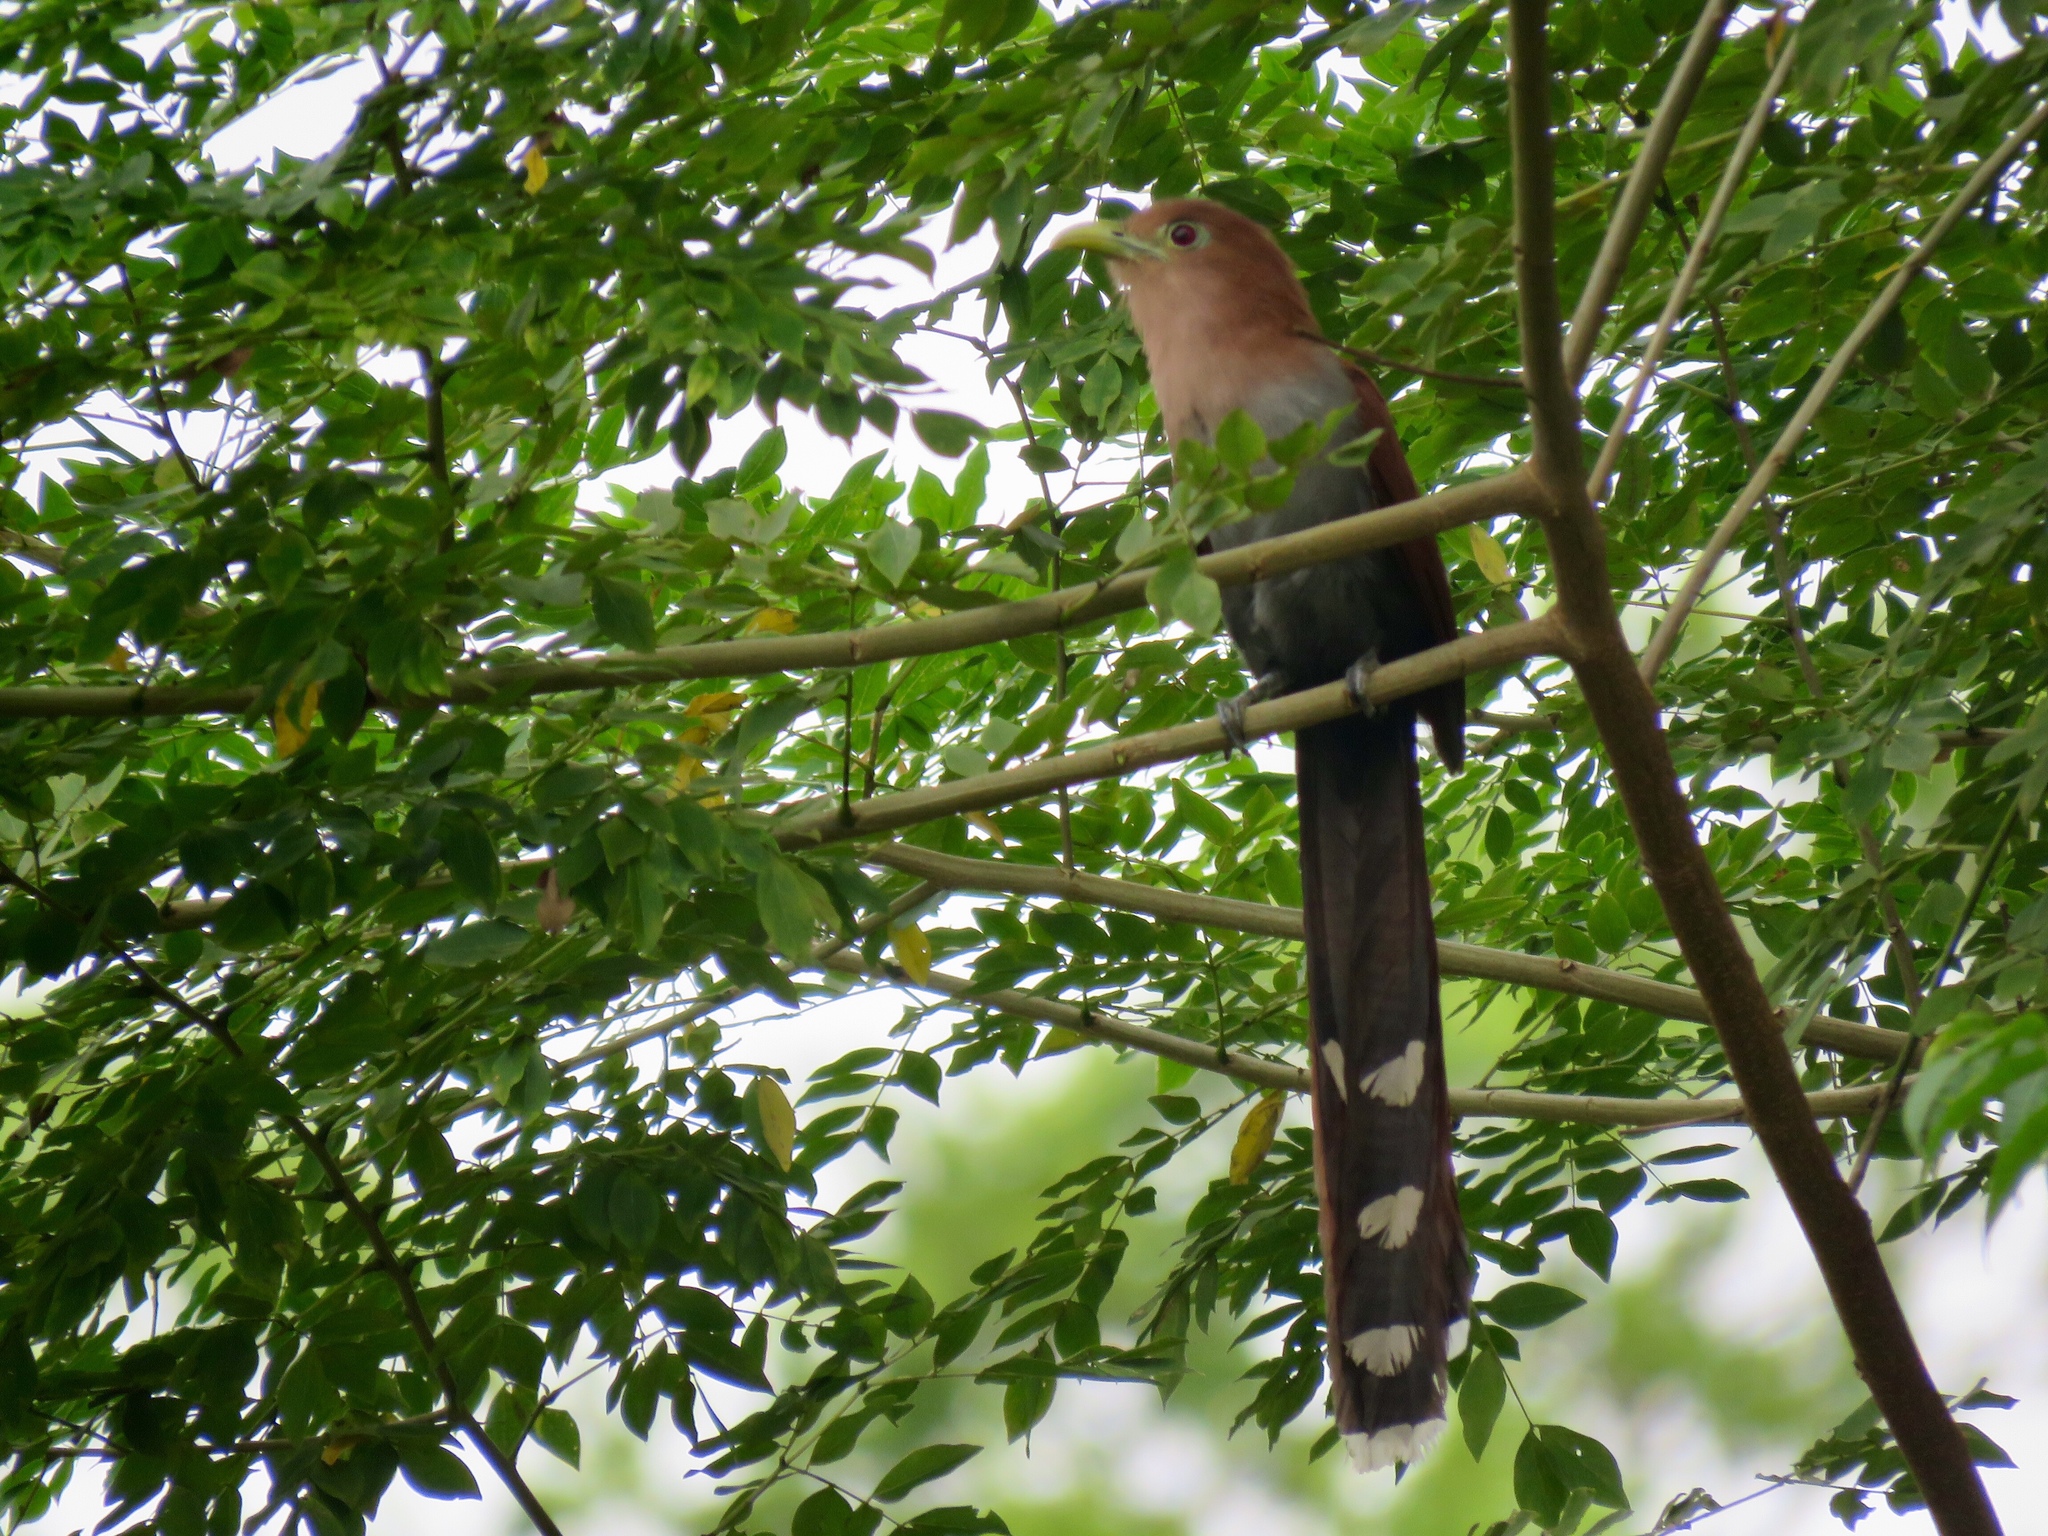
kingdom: Animalia
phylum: Chordata
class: Aves
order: Cuculiformes
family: Cuculidae
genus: Piaya
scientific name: Piaya cayana
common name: Squirrel cuckoo
